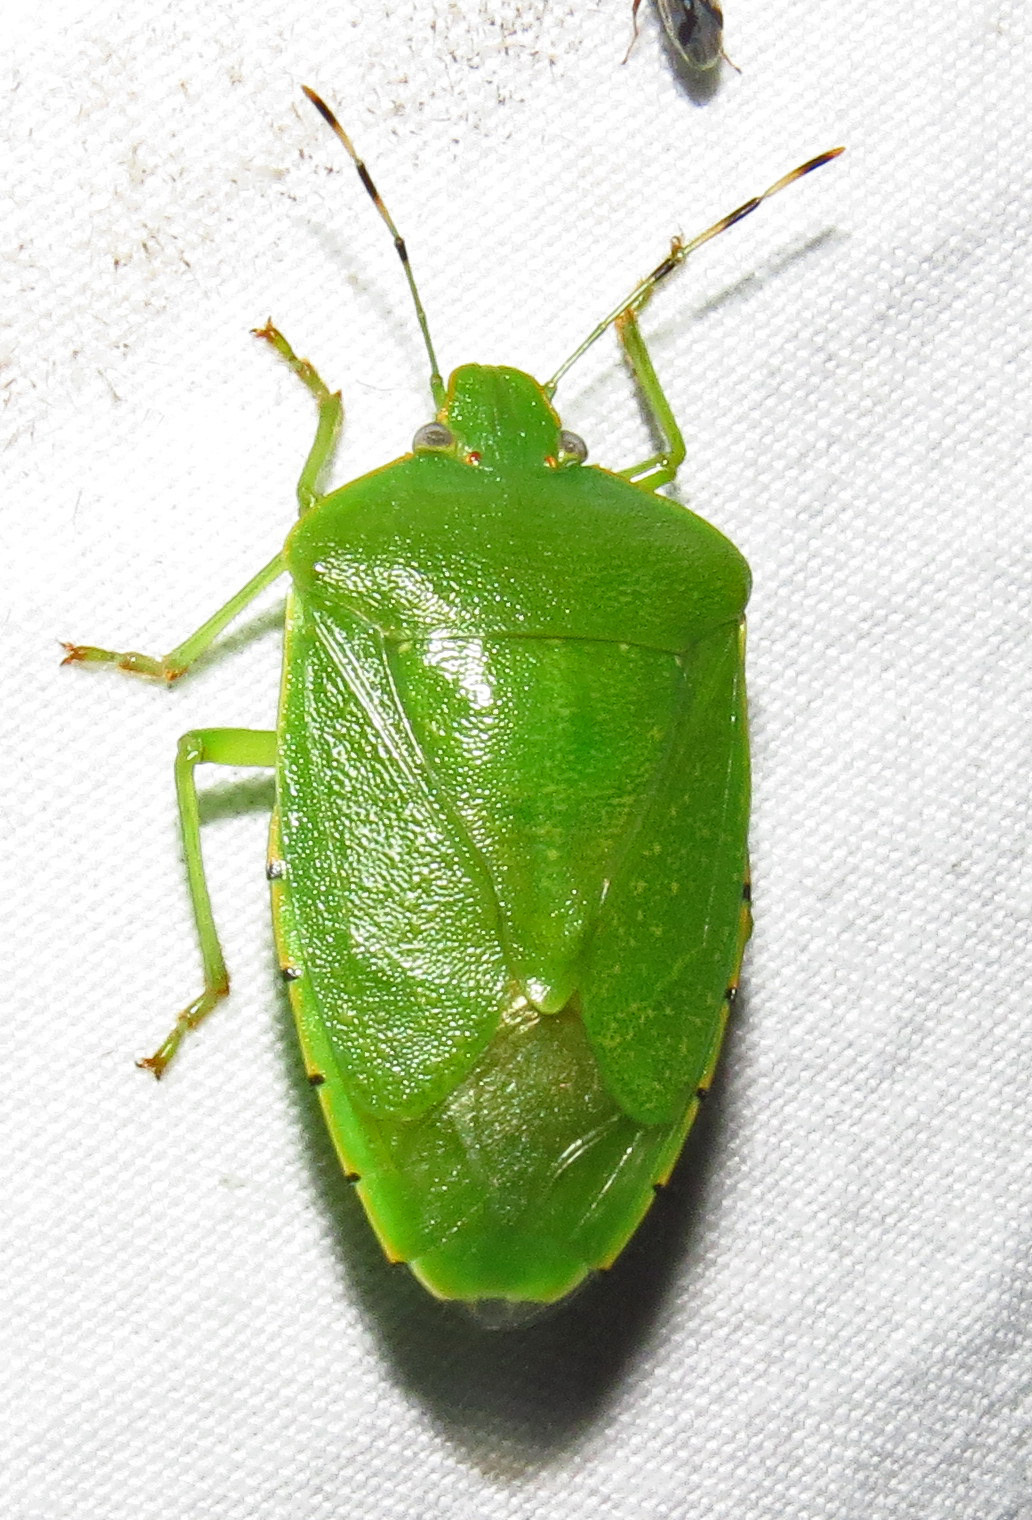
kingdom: Animalia
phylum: Arthropoda
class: Insecta
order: Hemiptera
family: Pentatomidae
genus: Chinavia
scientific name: Chinavia hilaris
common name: Green stink bug
